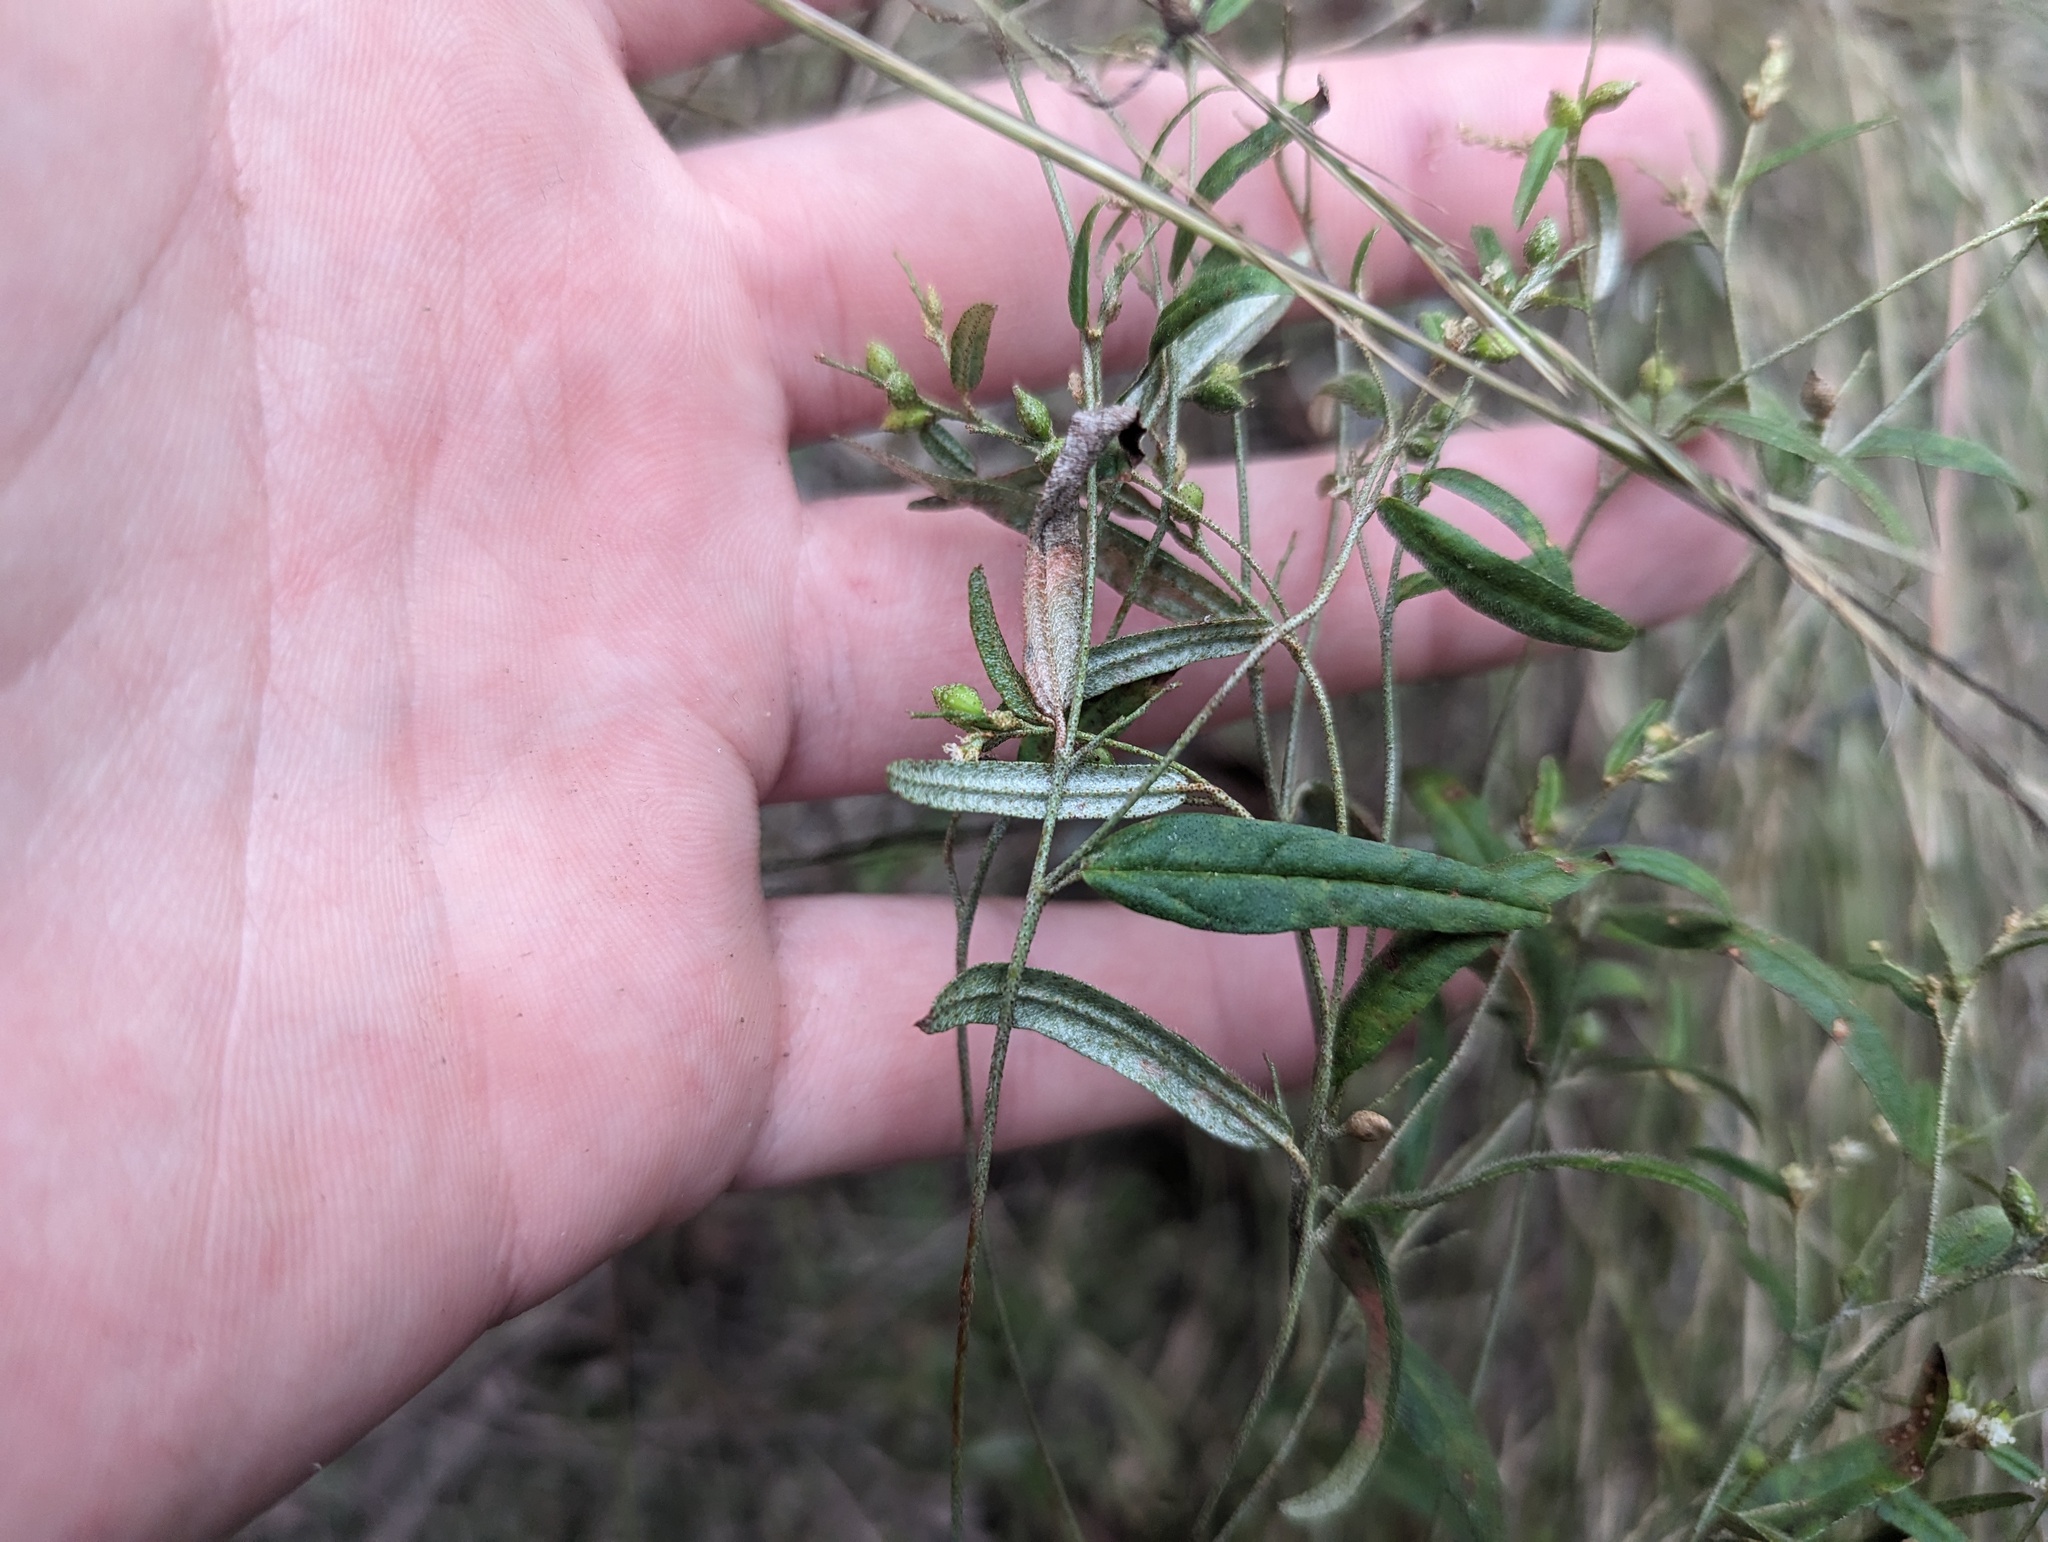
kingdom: Plantae
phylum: Tracheophyta
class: Magnoliopsida
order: Malpighiales
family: Euphorbiaceae
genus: Croton
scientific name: Croton michauxii
